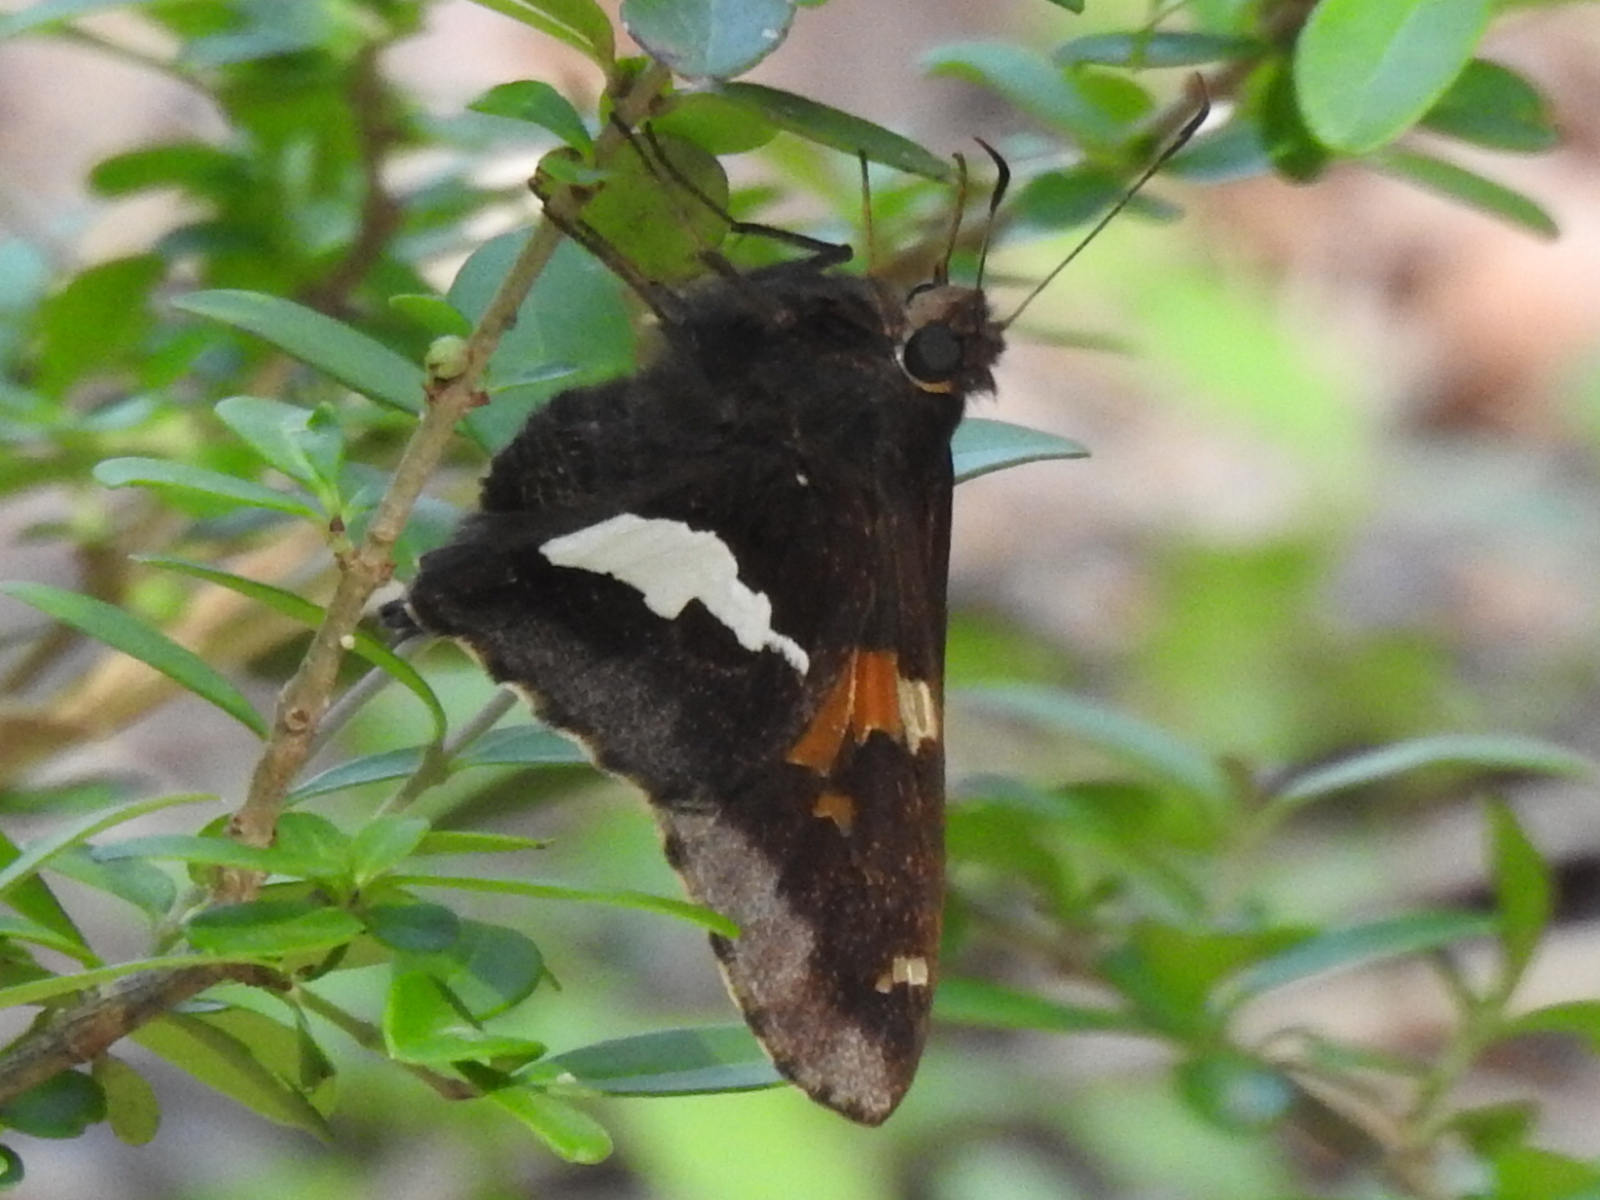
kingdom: Animalia
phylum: Arthropoda
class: Insecta
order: Lepidoptera
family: Hesperiidae
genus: Epargyreus
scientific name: Epargyreus clarus
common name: Silver-spotted skipper
